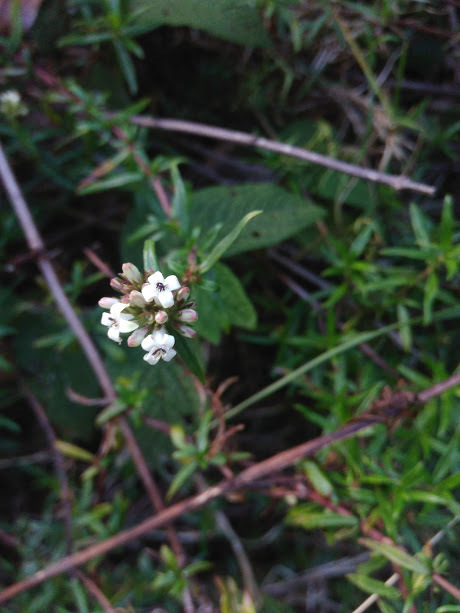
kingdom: Plantae
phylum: Tracheophyta
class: Magnoliopsida
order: Gentianales
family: Rubiaceae
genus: Galianthe
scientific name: Galianthe bogotensis
